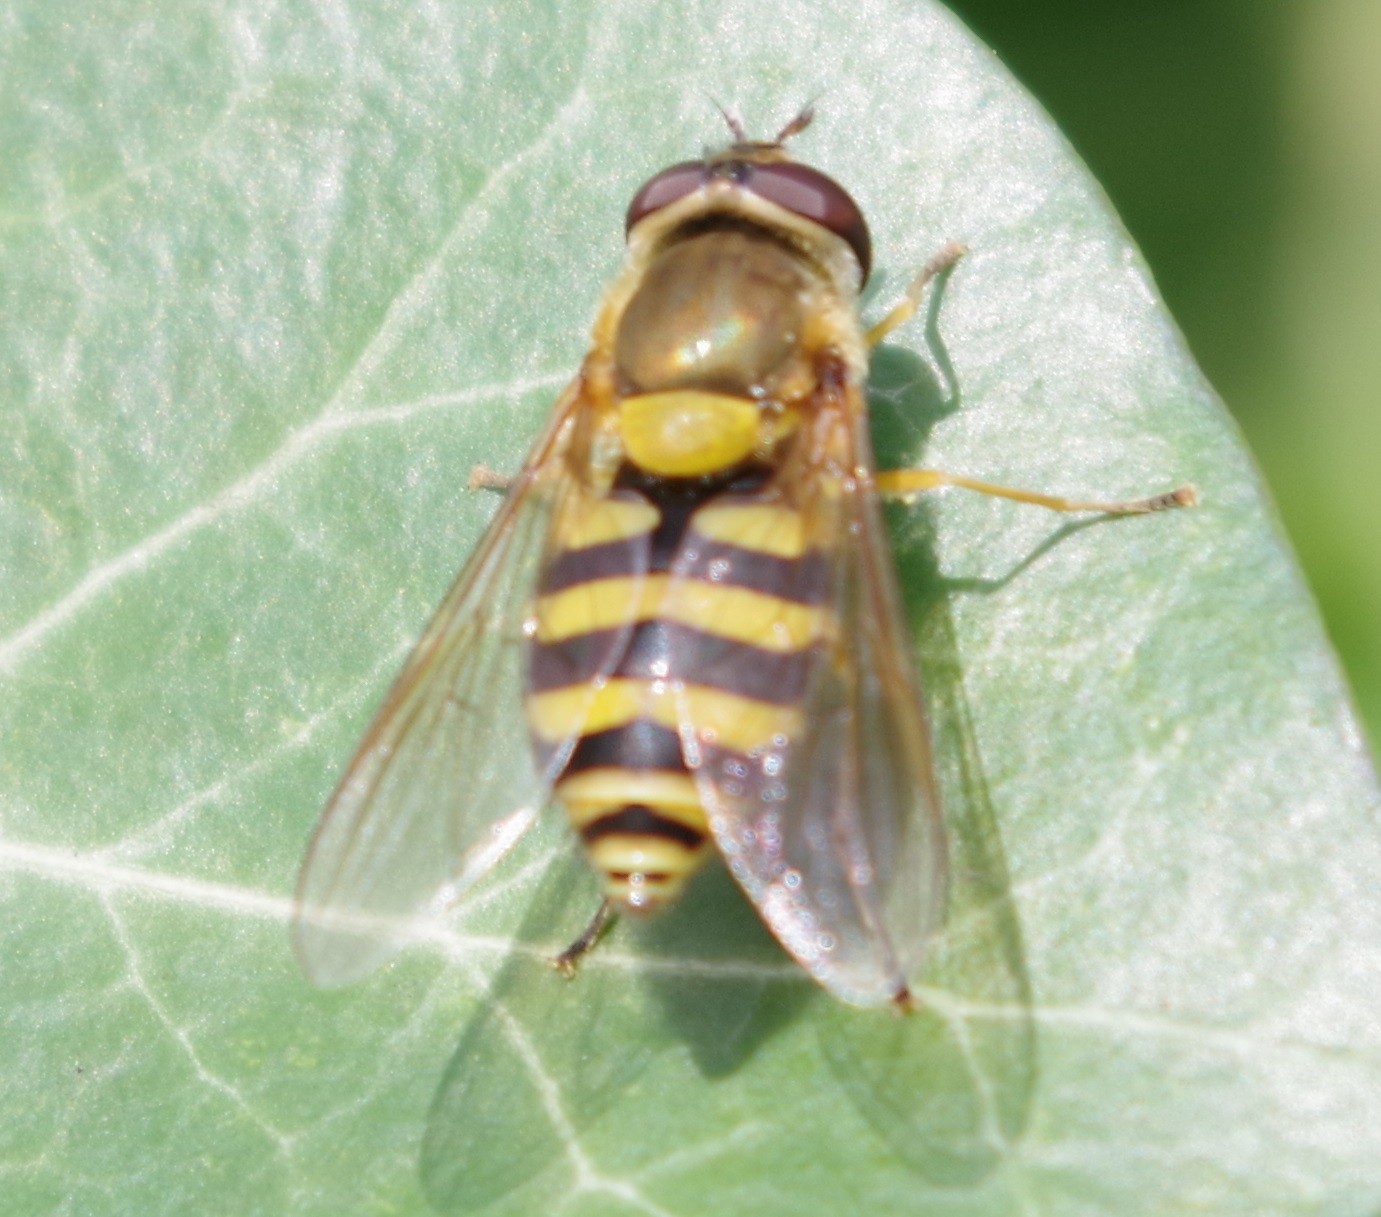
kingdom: Animalia
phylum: Arthropoda
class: Insecta
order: Diptera
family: Syrphidae
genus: Syrphus
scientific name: Syrphus
